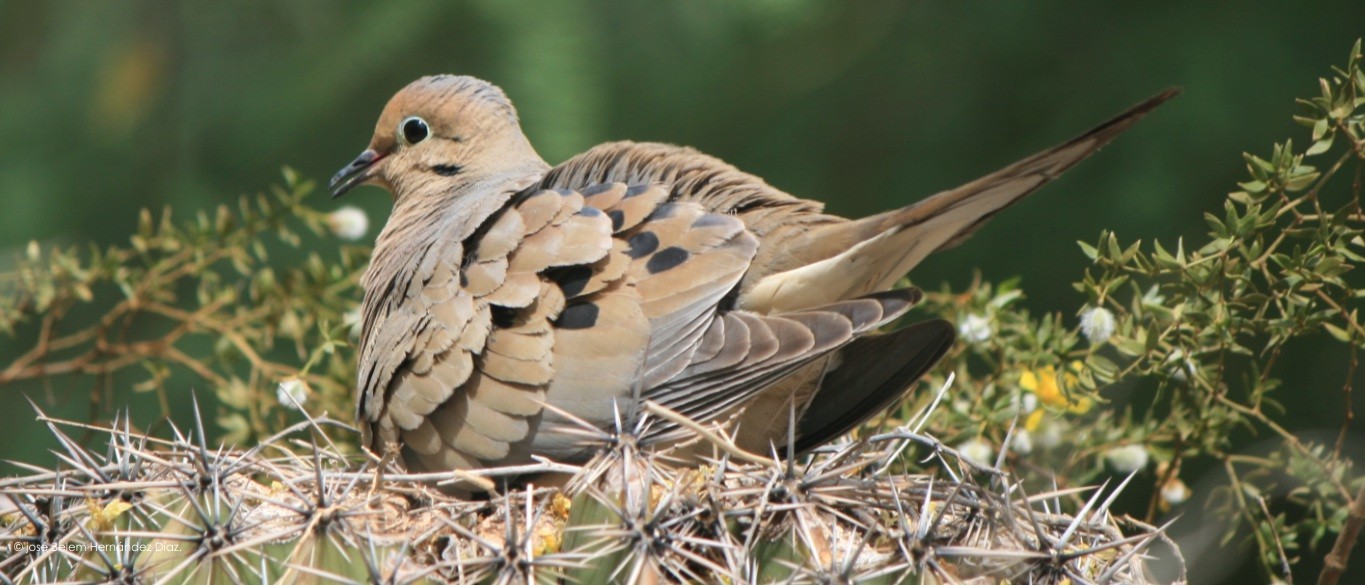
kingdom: Animalia
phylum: Chordata
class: Aves
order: Columbiformes
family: Columbidae
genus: Zenaida
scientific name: Zenaida macroura
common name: Mourning dove
